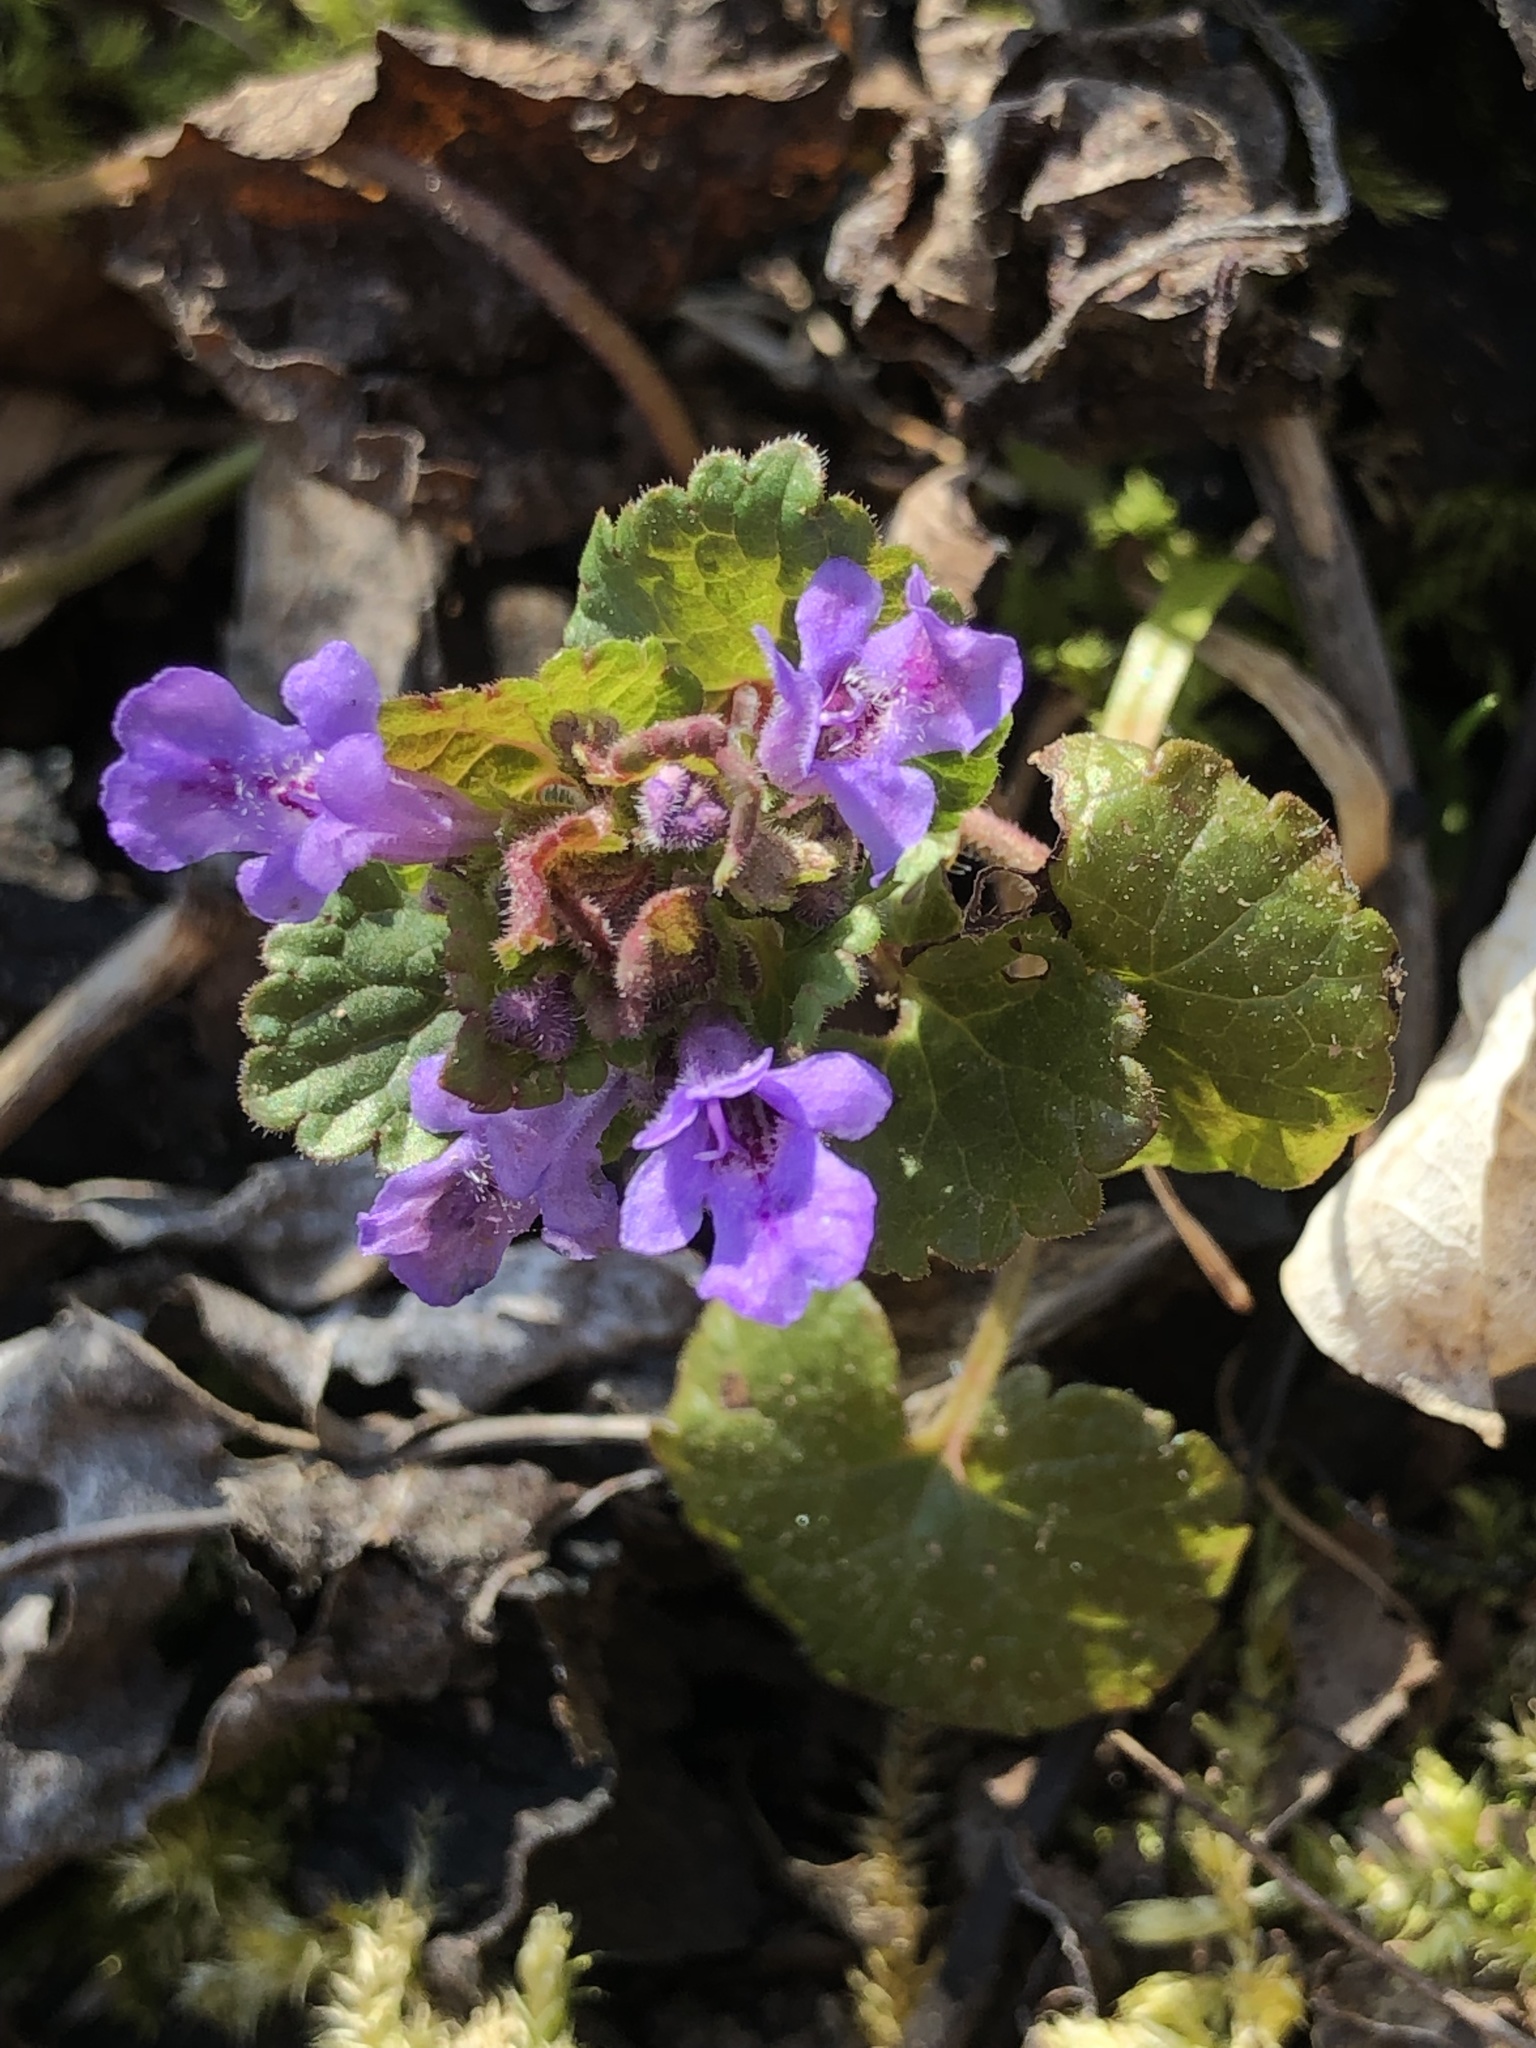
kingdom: Plantae
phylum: Tracheophyta
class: Magnoliopsida
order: Lamiales
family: Lamiaceae
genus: Glechoma
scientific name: Glechoma hederacea
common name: Ground ivy
